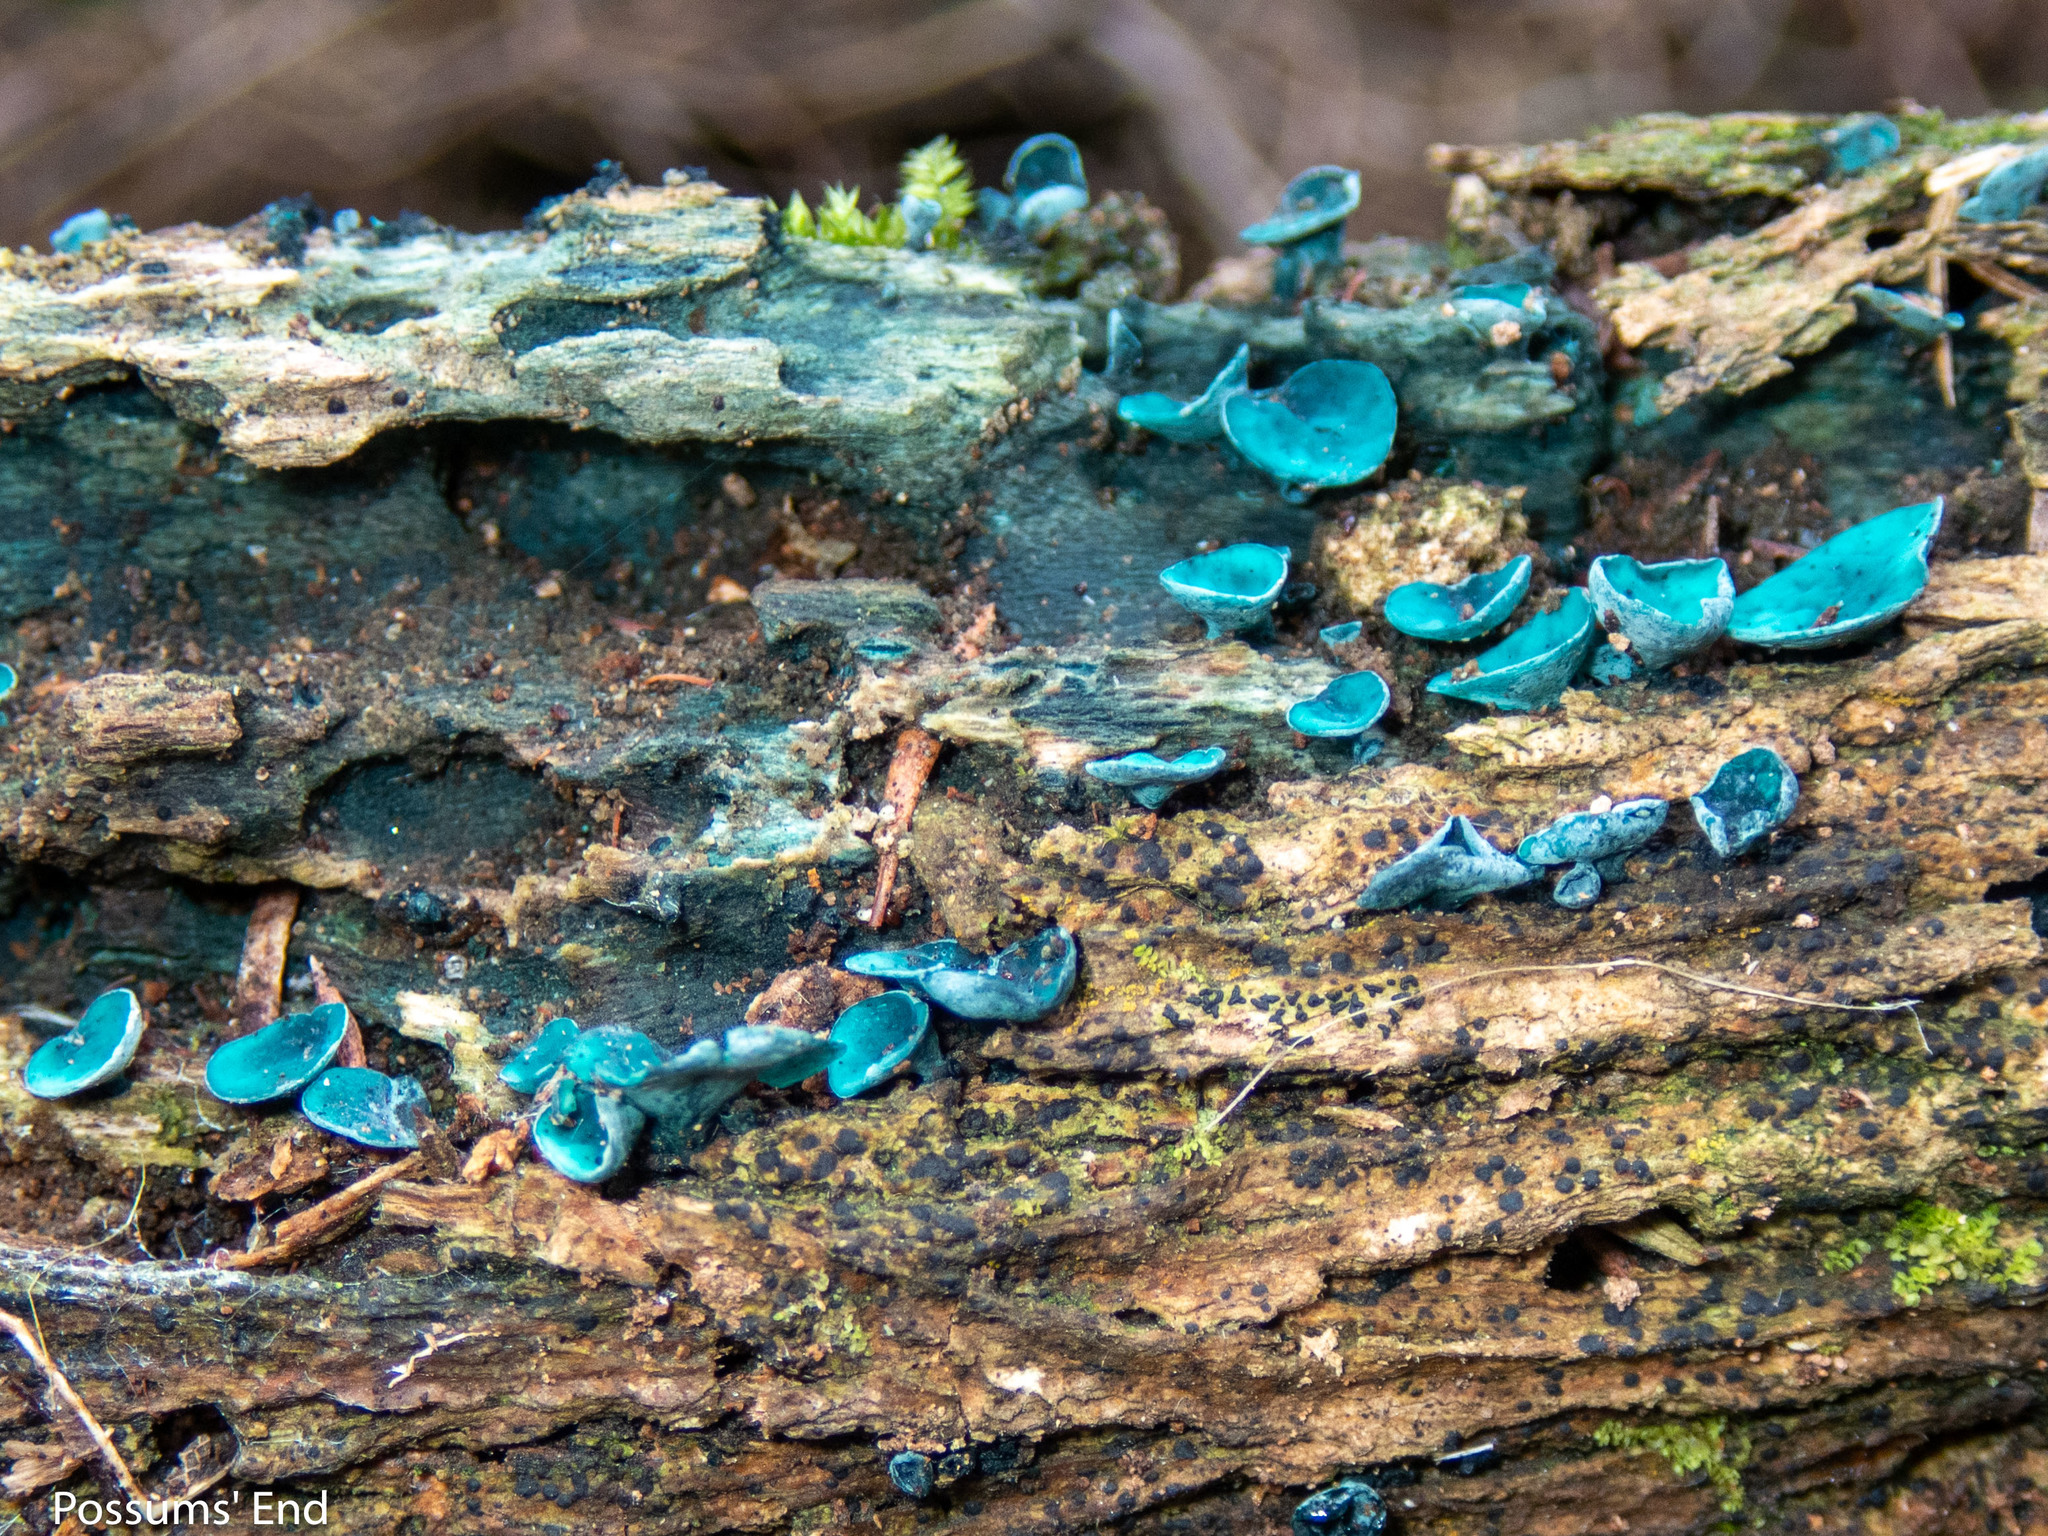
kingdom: Fungi
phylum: Ascomycota
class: Leotiomycetes
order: Helotiales
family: Chlorociboriaceae
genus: Chlorociboria
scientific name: Chlorociboria
